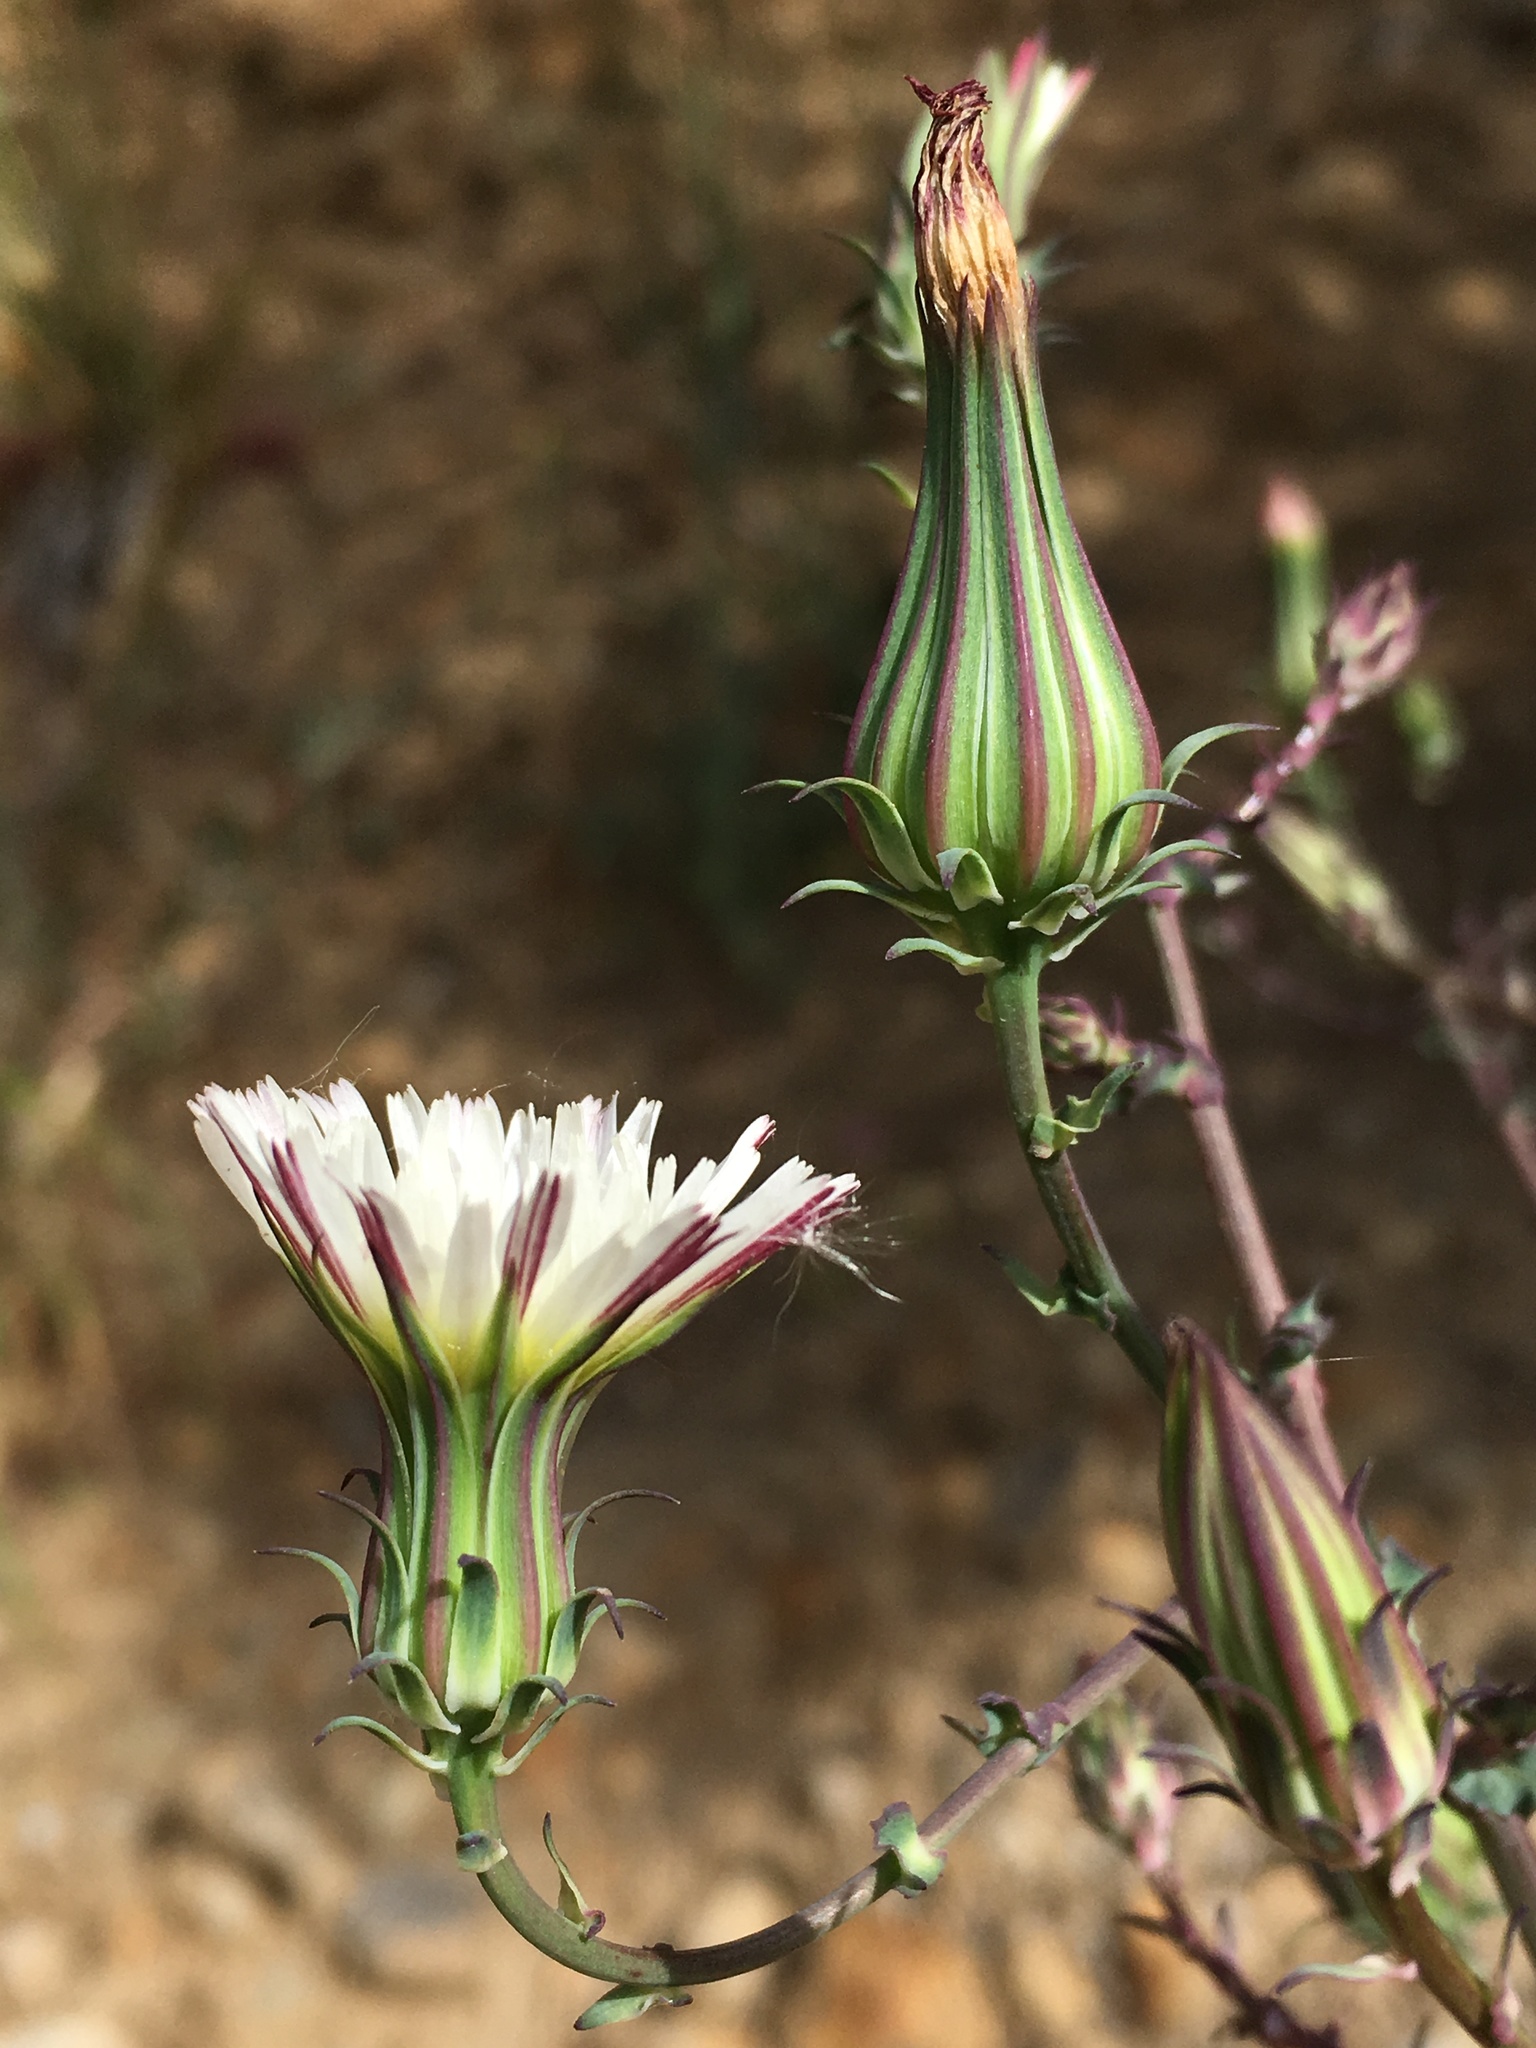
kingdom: Plantae
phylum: Tracheophyta
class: Magnoliopsida
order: Asterales
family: Asteraceae
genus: Rafinesquia
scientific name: Rafinesquia neomexicana
